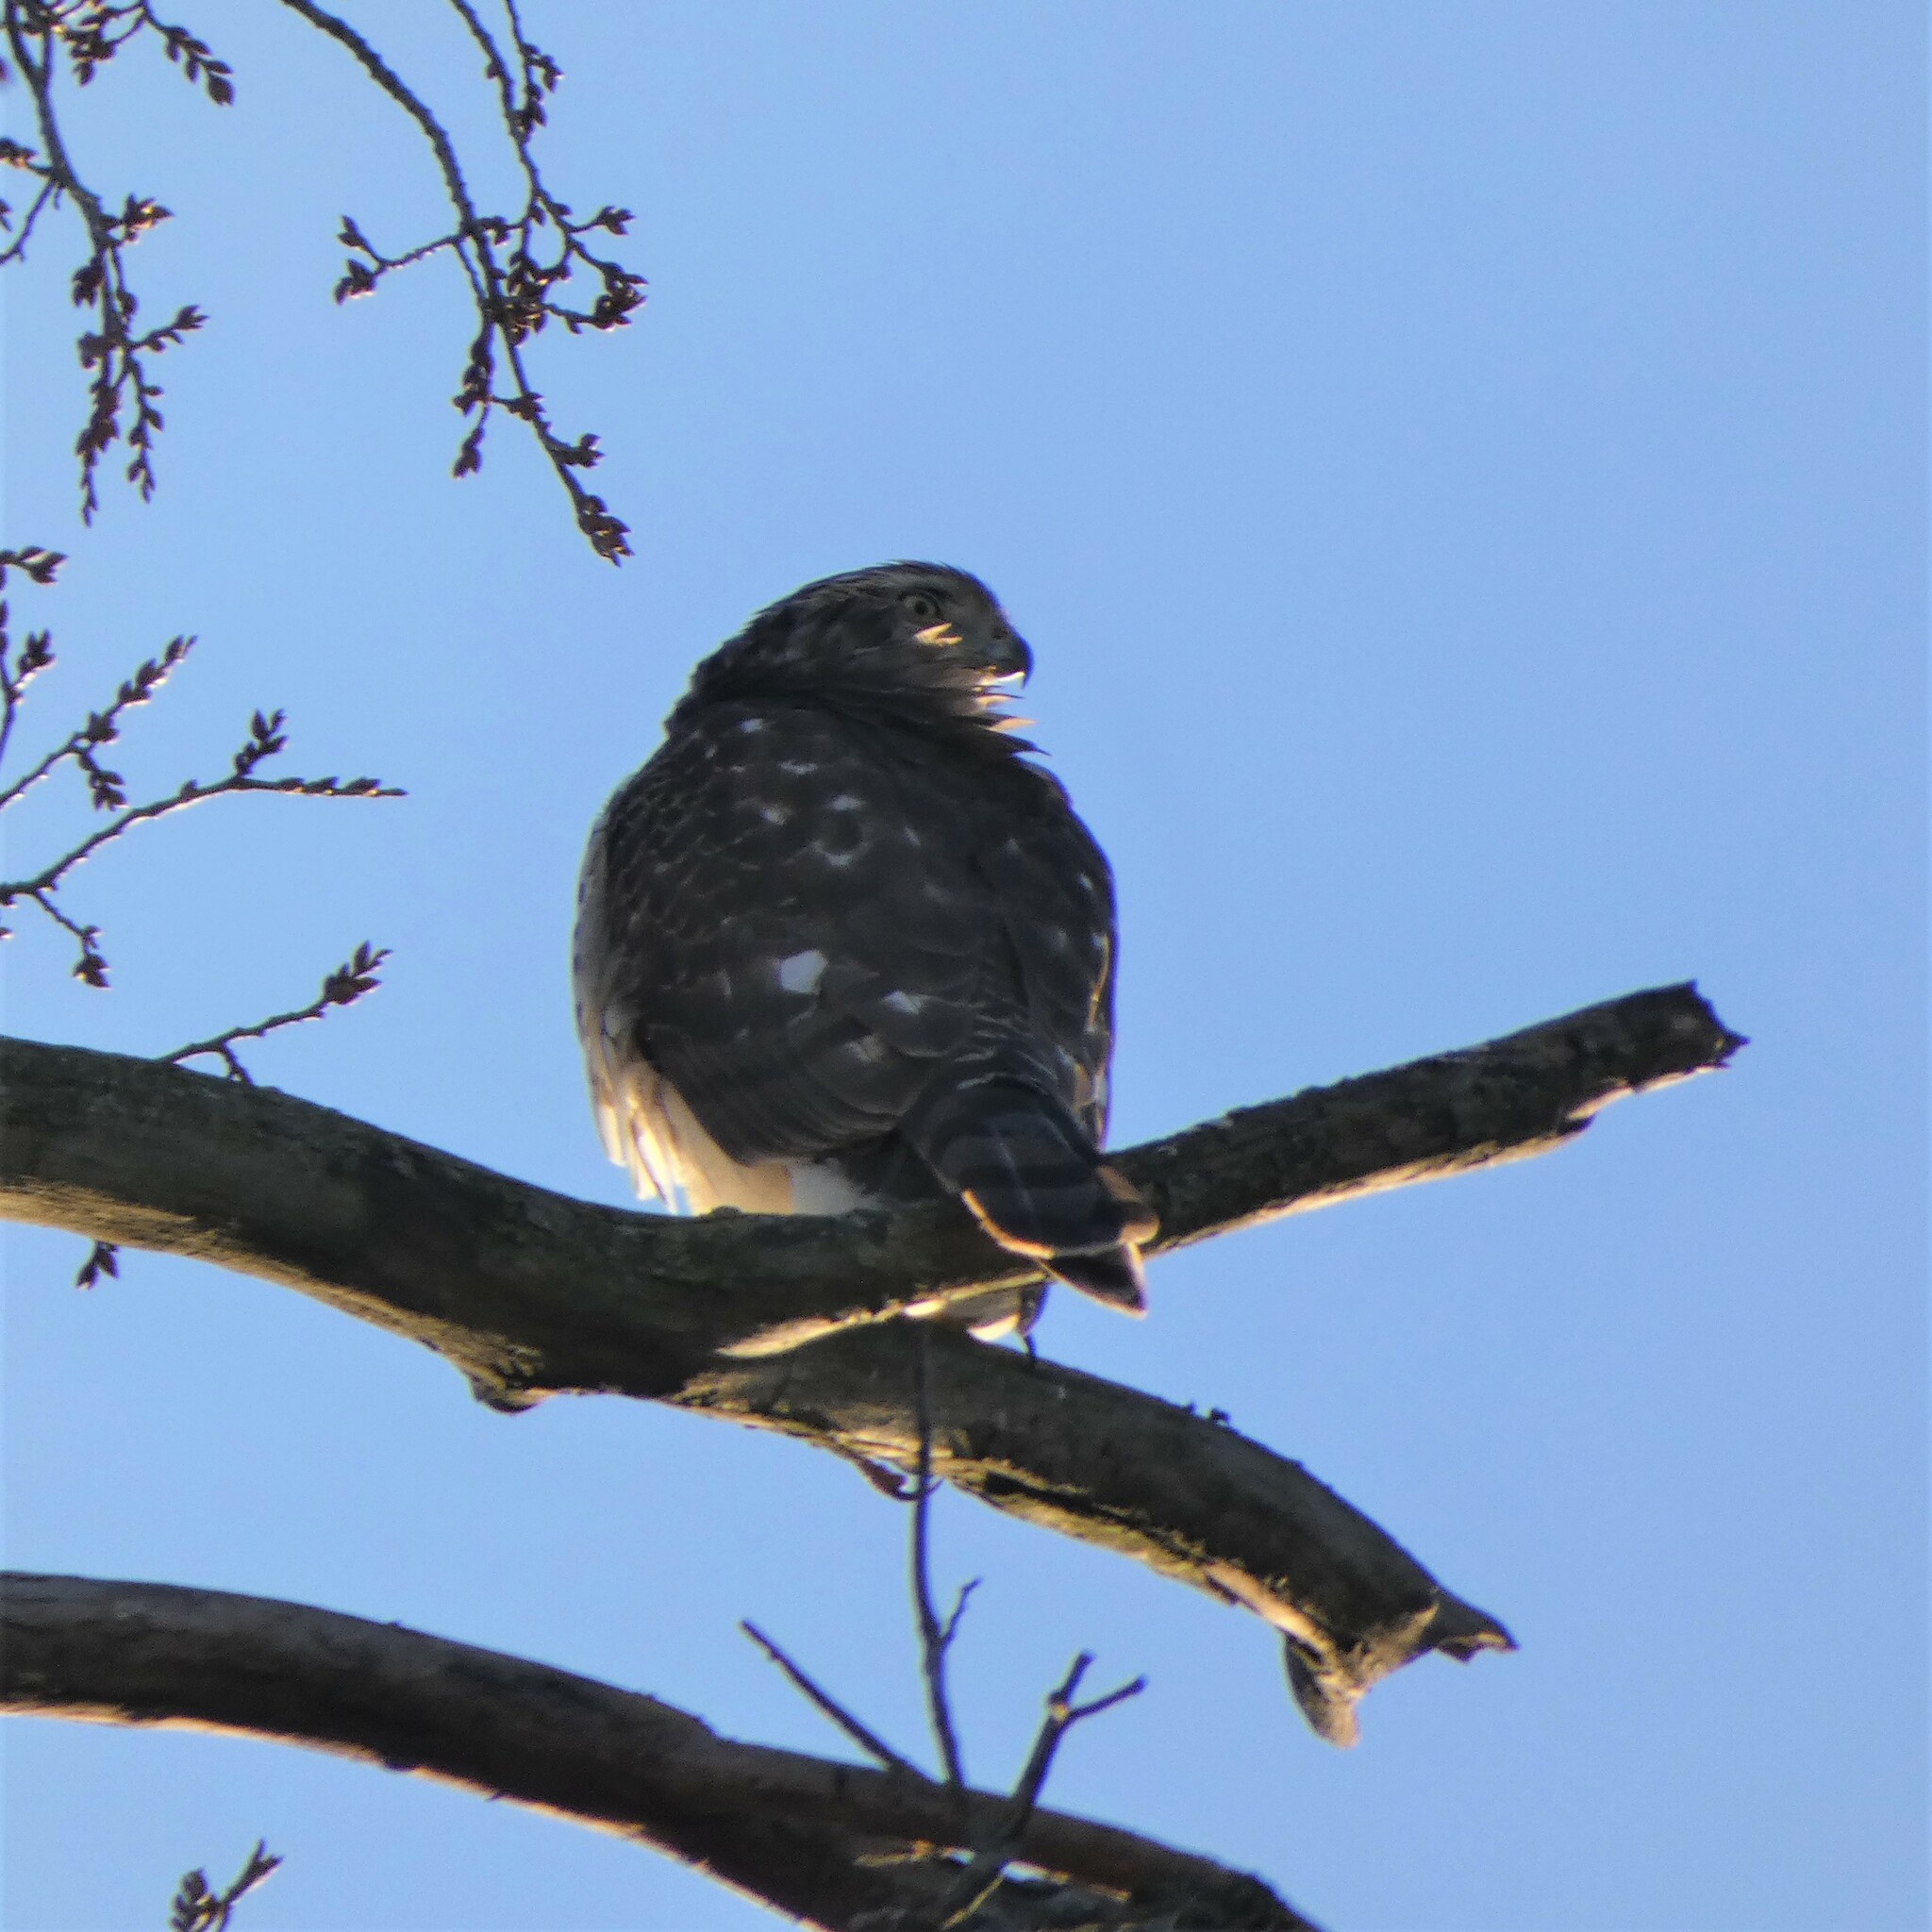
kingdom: Animalia
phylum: Chordata
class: Aves
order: Accipitriformes
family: Accipitridae
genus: Accipiter
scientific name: Accipiter cooperii
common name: Cooper's hawk
